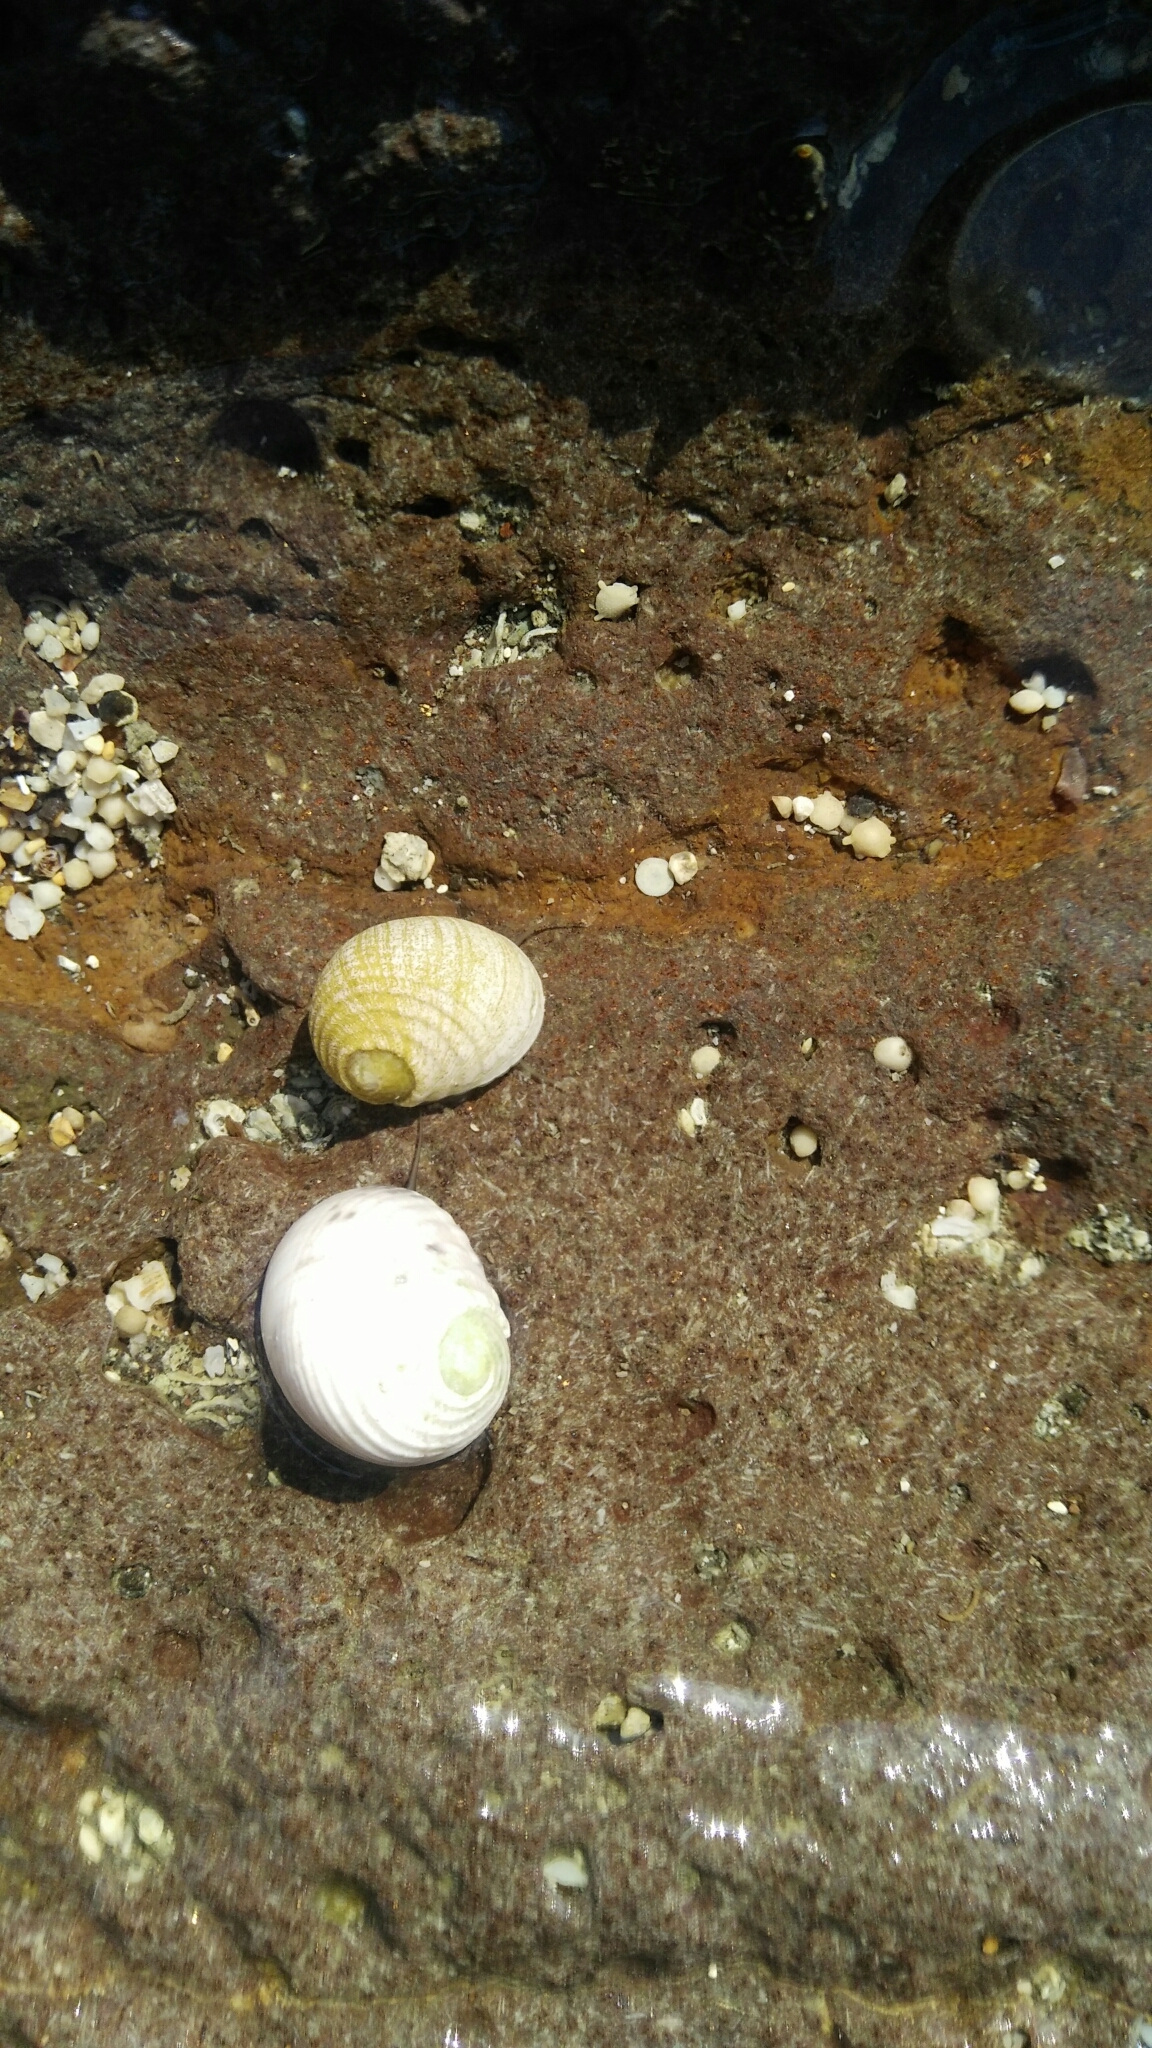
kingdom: Animalia
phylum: Mollusca
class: Gastropoda
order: Cycloneritida
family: Neritidae
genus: Nerita
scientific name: Nerita plicata
